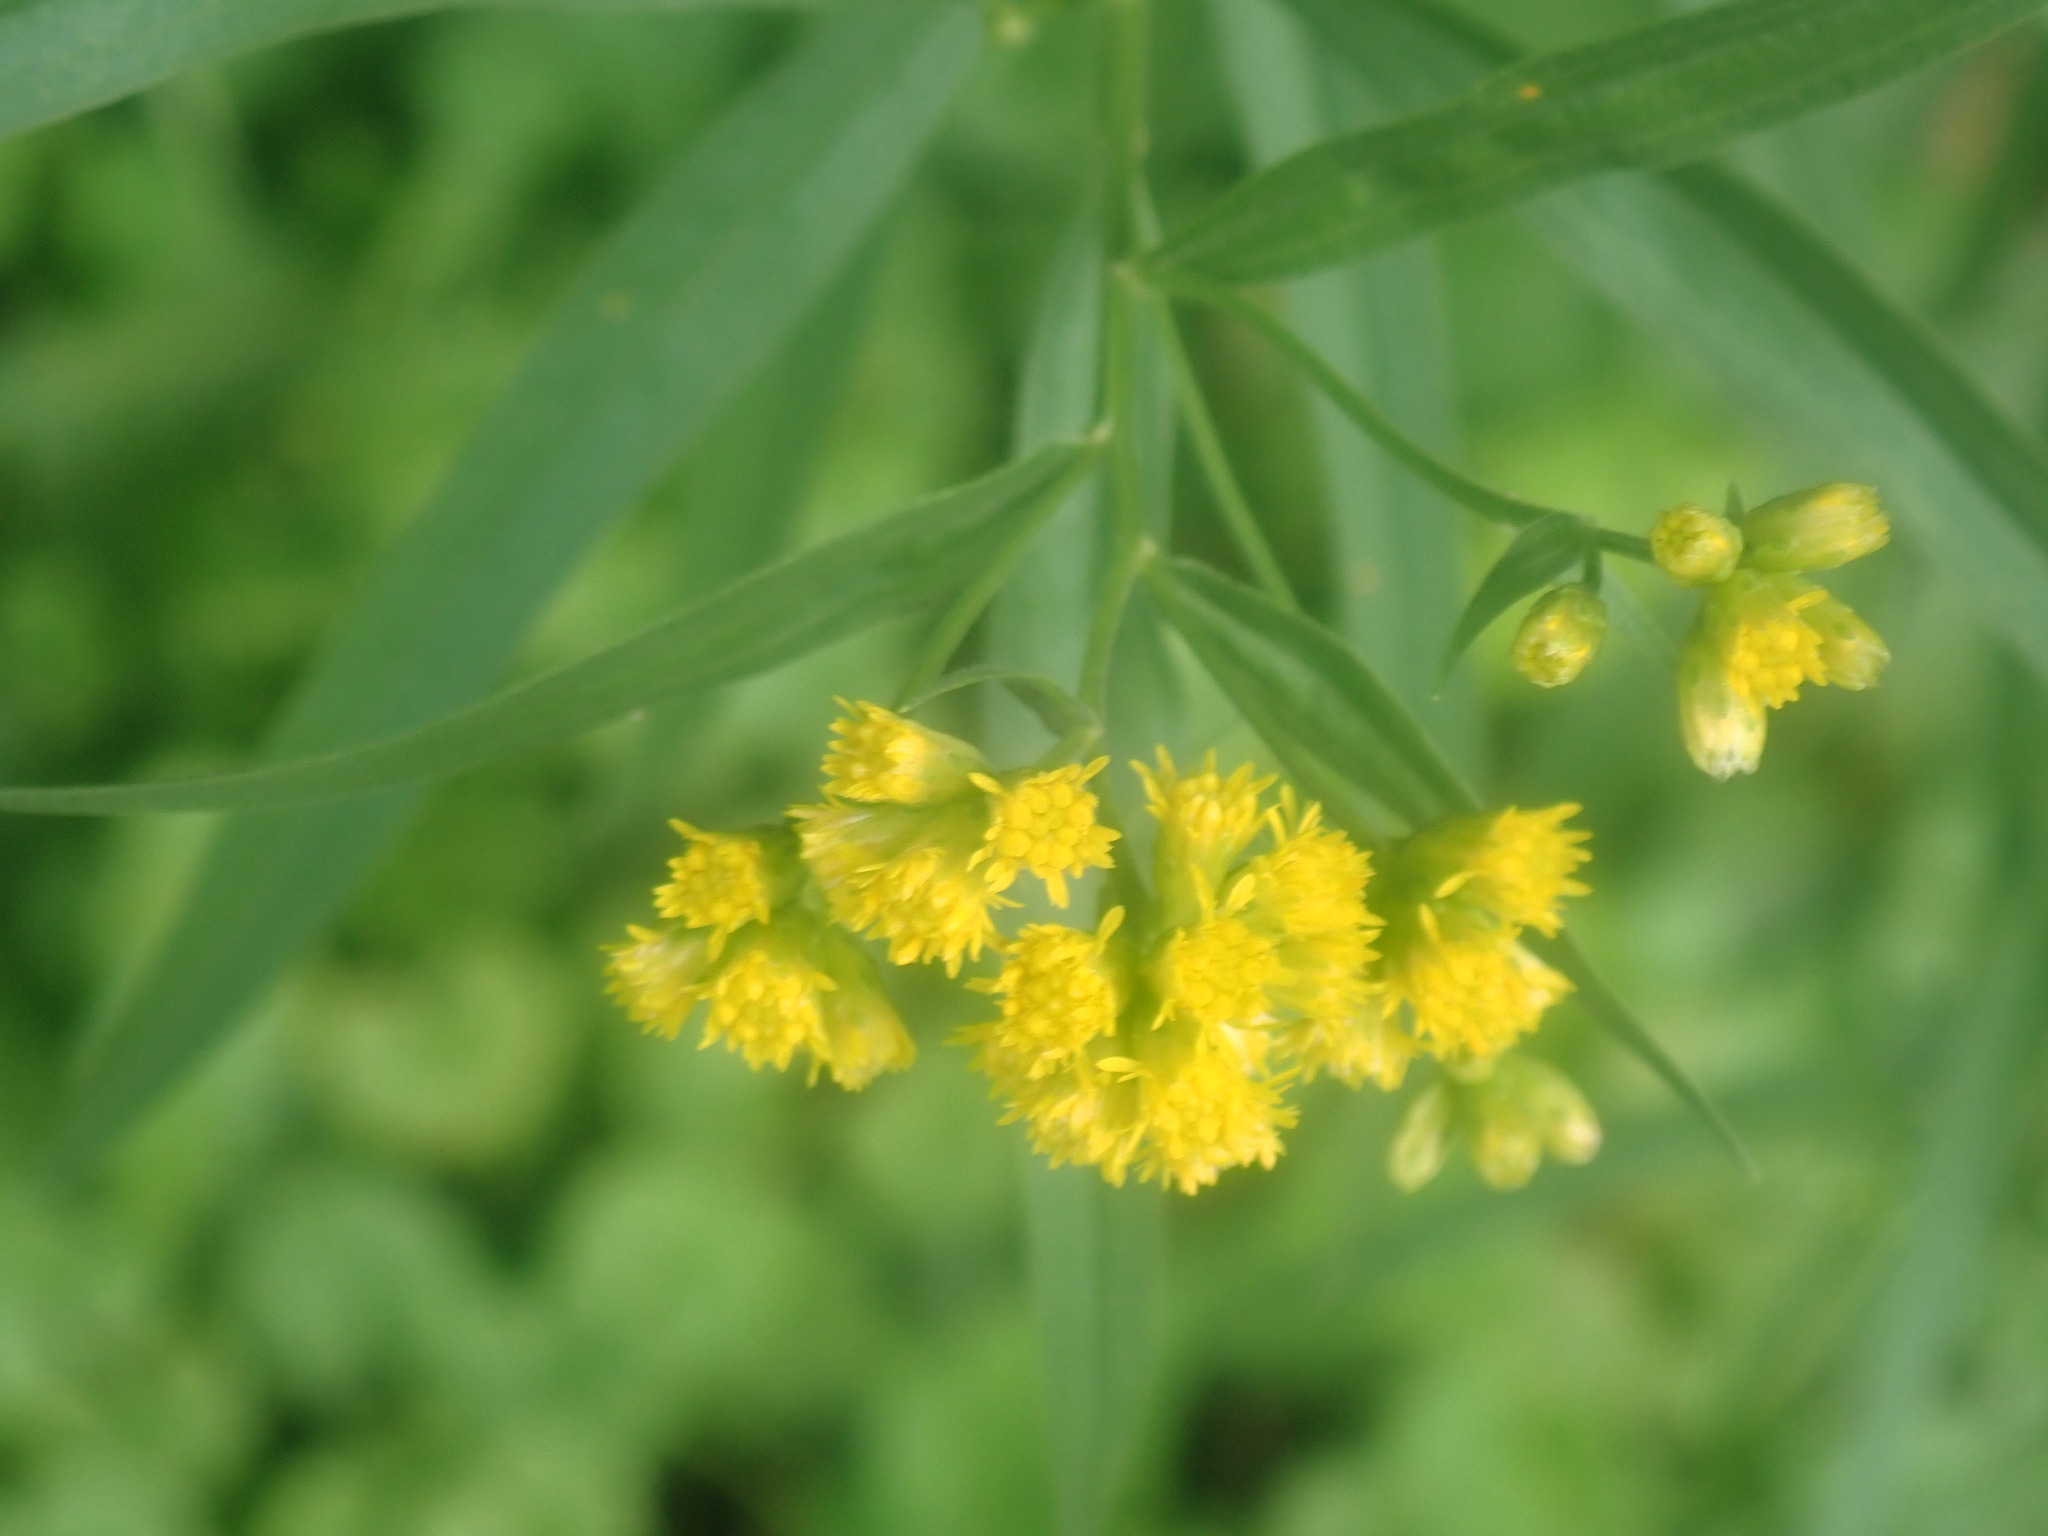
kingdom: Plantae
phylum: Tracheophyta
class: Magnoliopsida
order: Asterales
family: Asteraceae
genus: Euthamia
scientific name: Euthamia graminifolia
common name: Common goldentop
